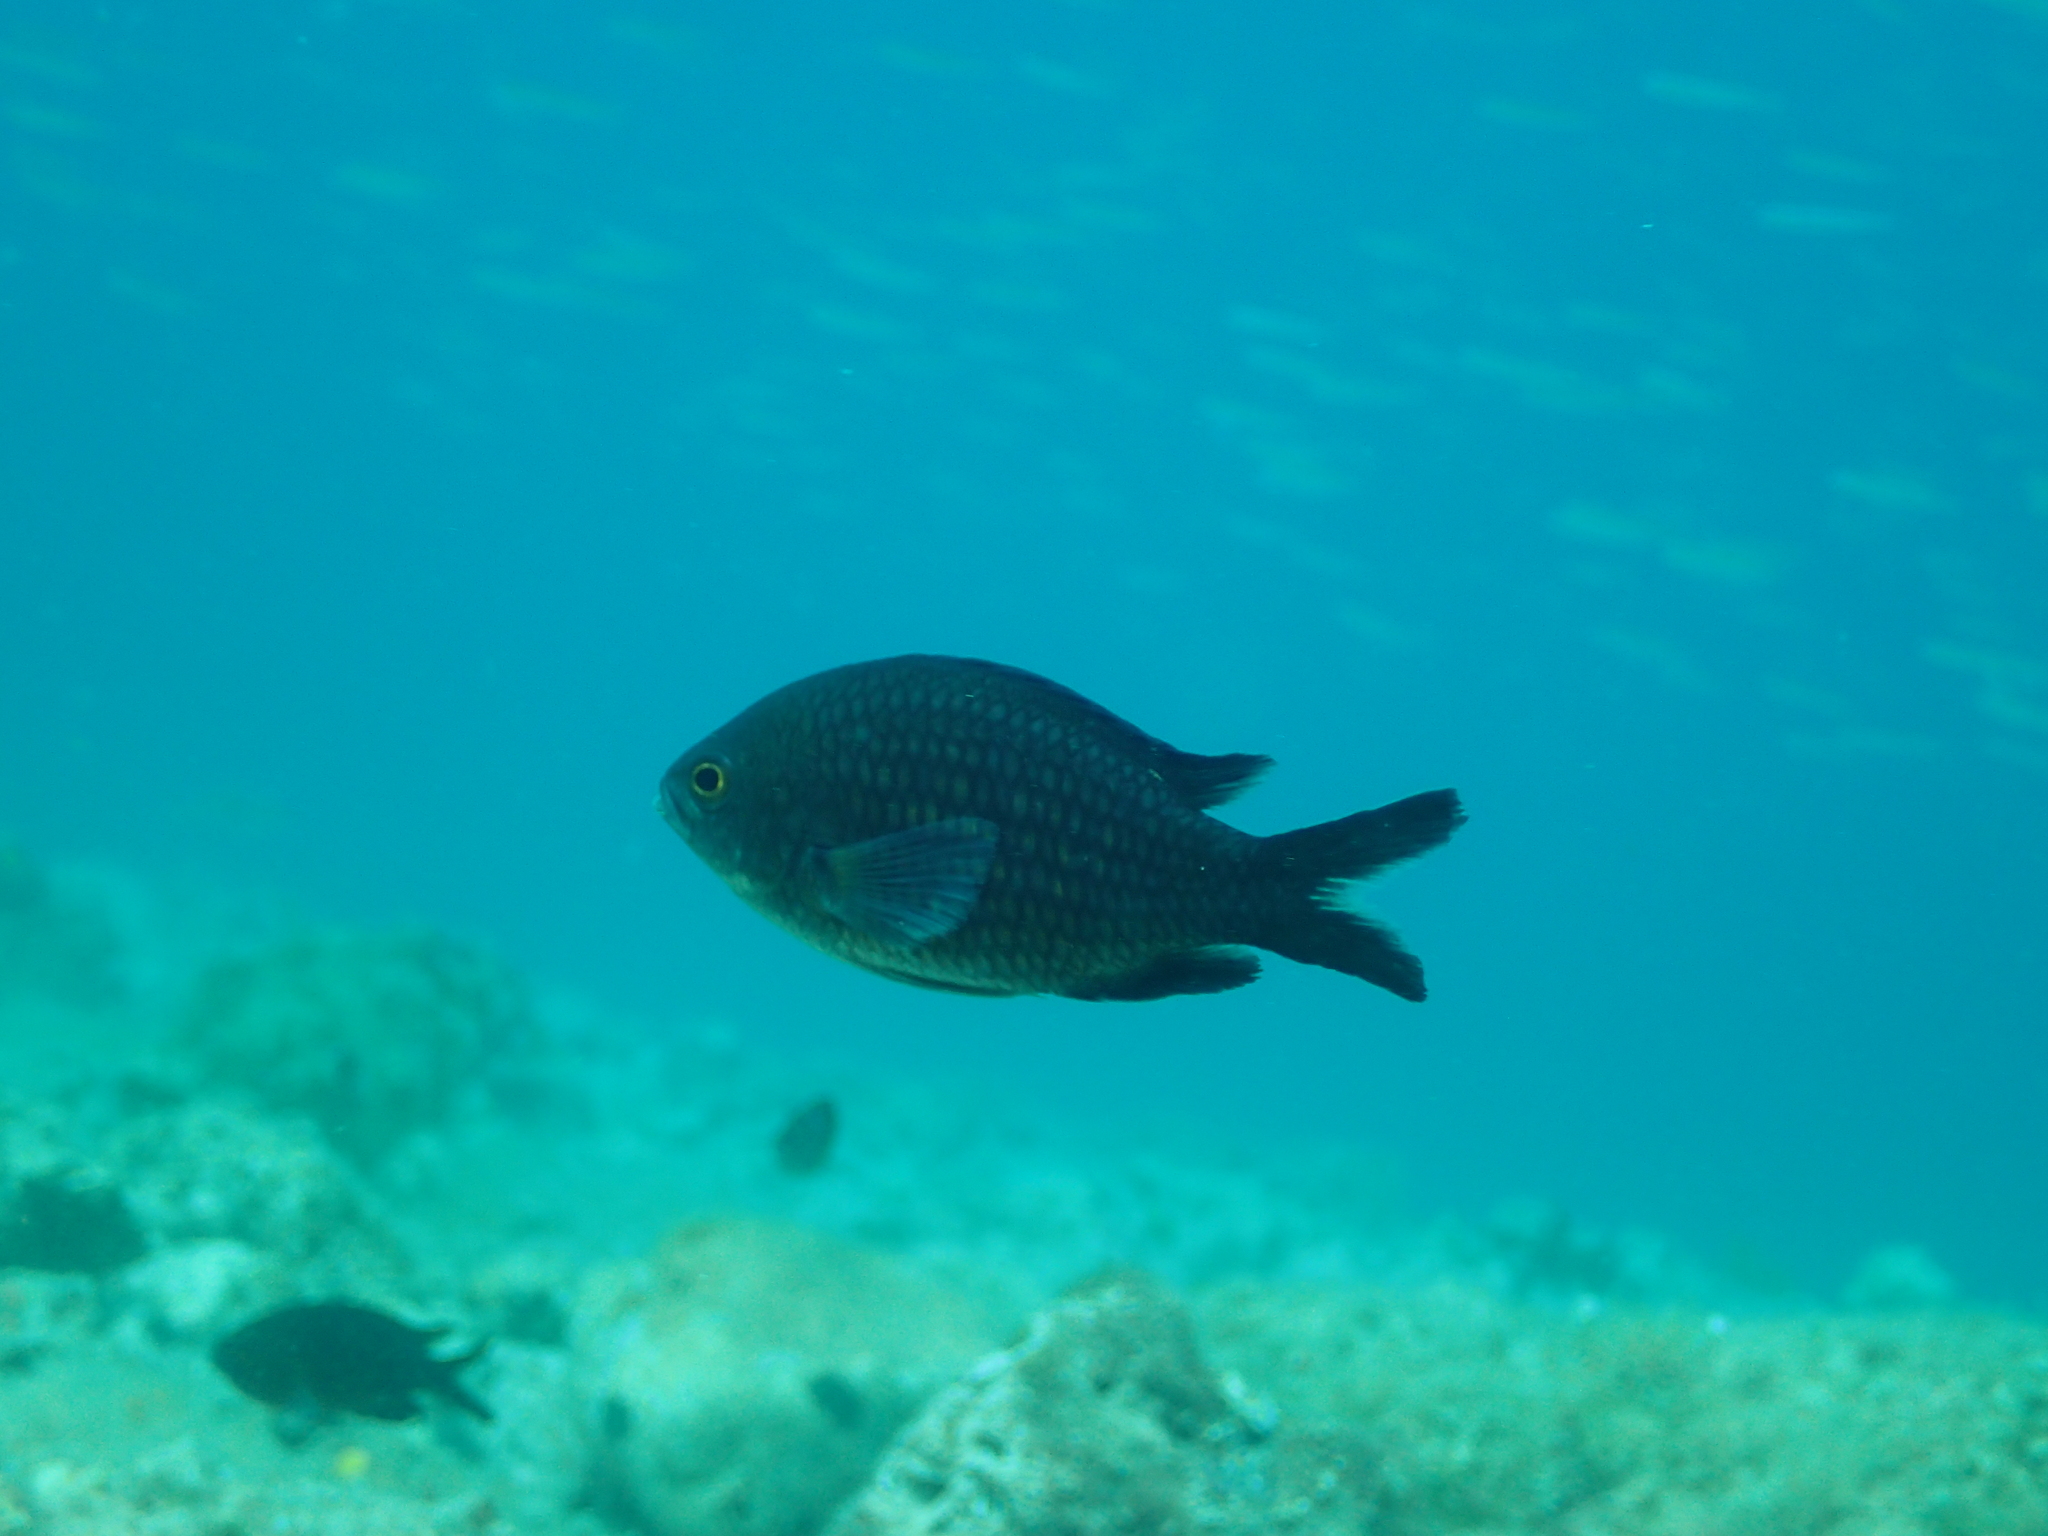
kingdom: Animalia
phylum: Chordata
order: Perciformes
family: Pomacentridae
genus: Chromis
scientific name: Chromis chromis
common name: Damselfish
